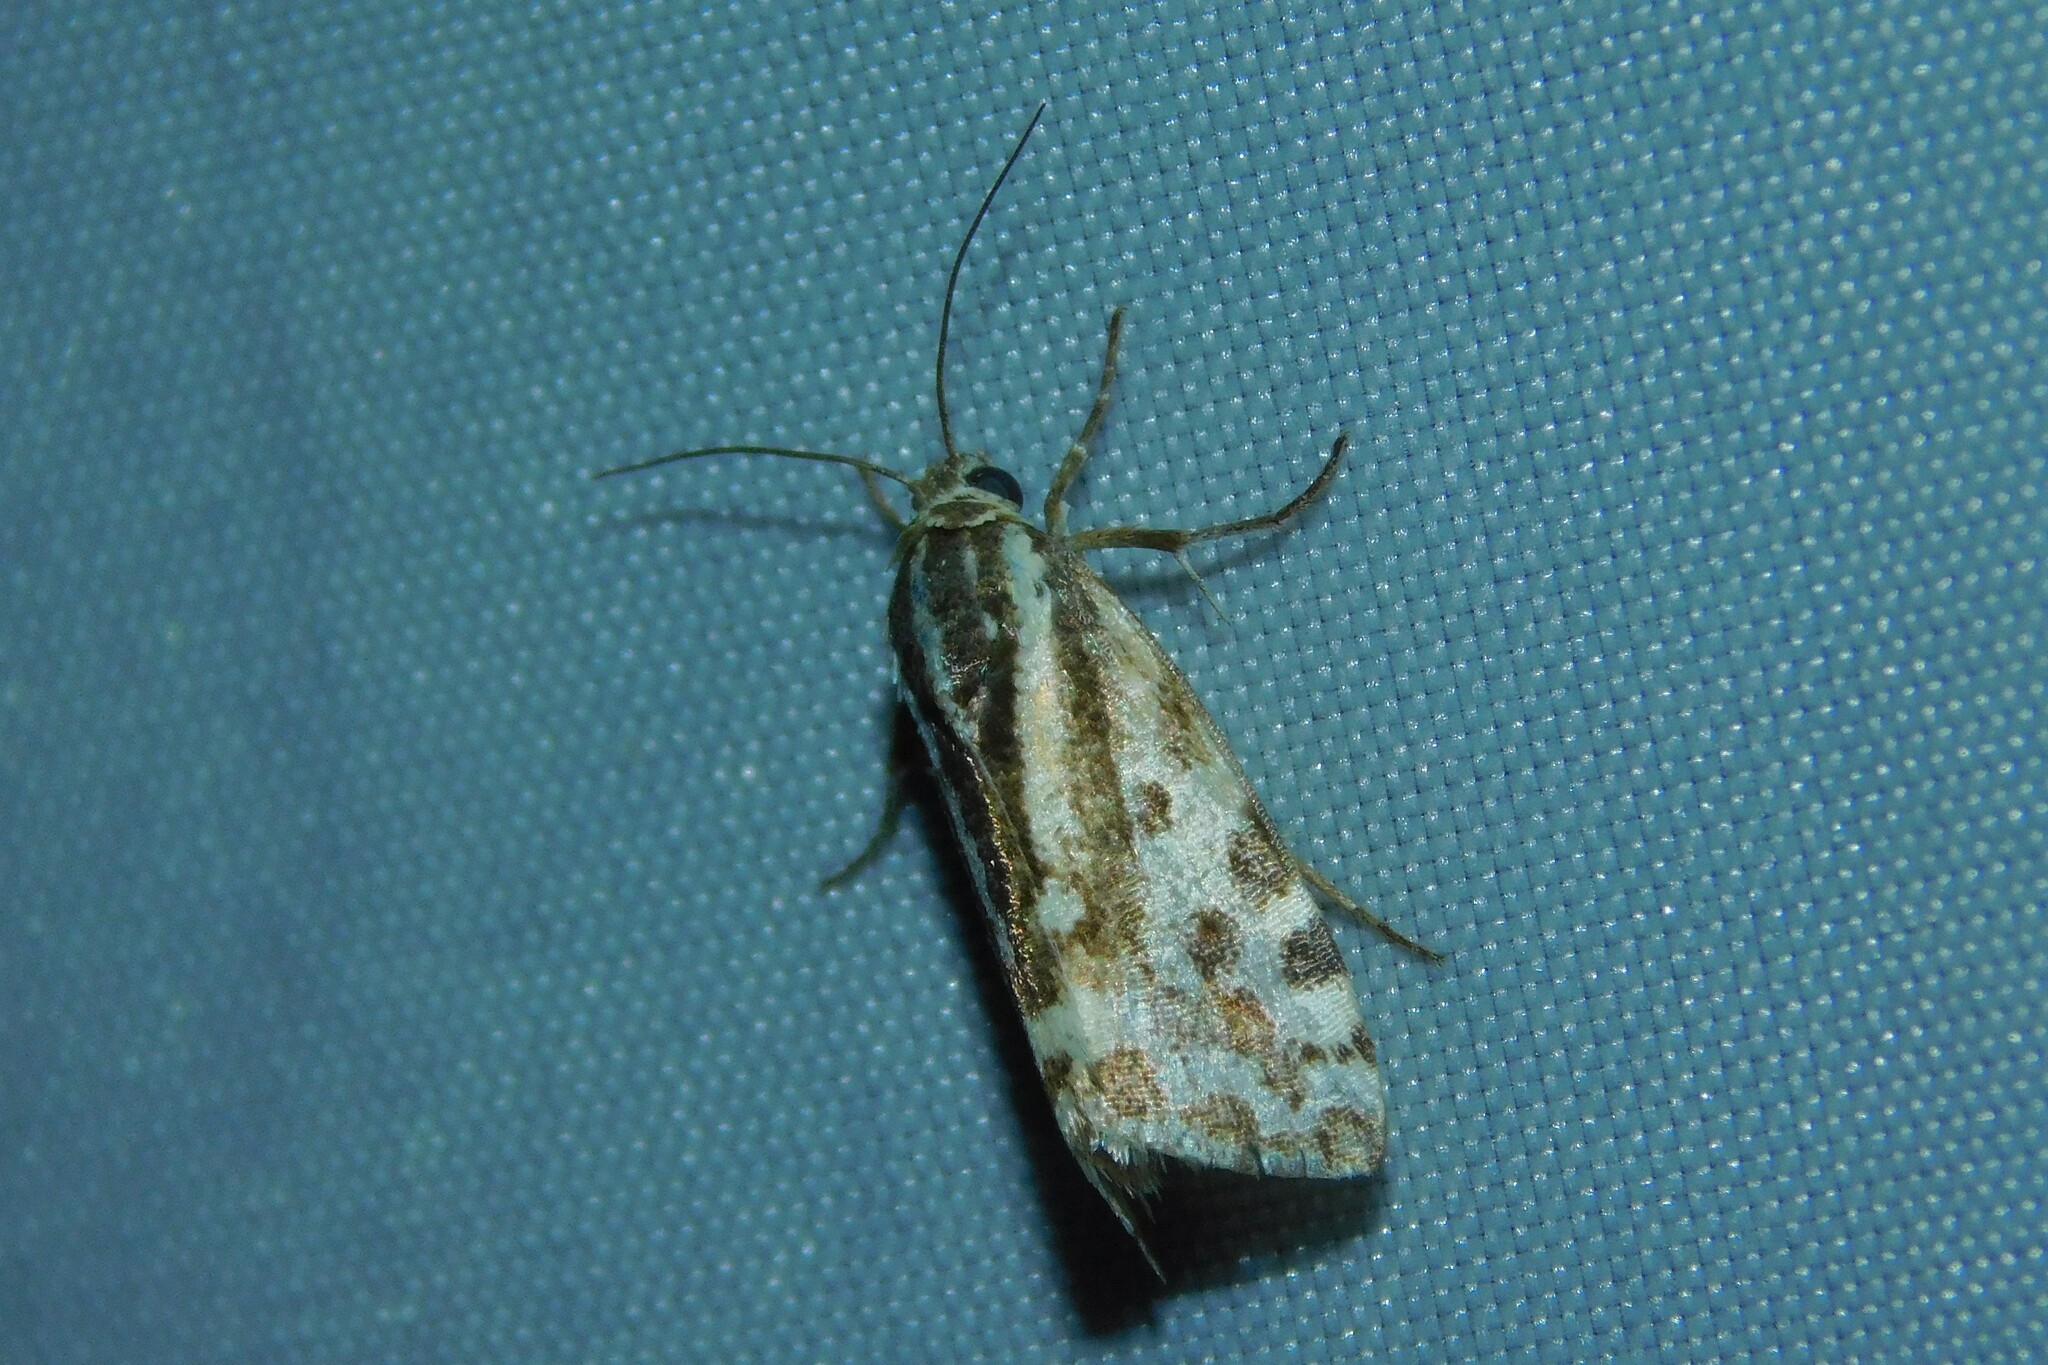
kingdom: Animalia
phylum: Arthropoda
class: Insecta
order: Lepidoptera
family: Noctuidae
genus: Acontia
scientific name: Acontia trabealis
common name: Spotted sulphur
